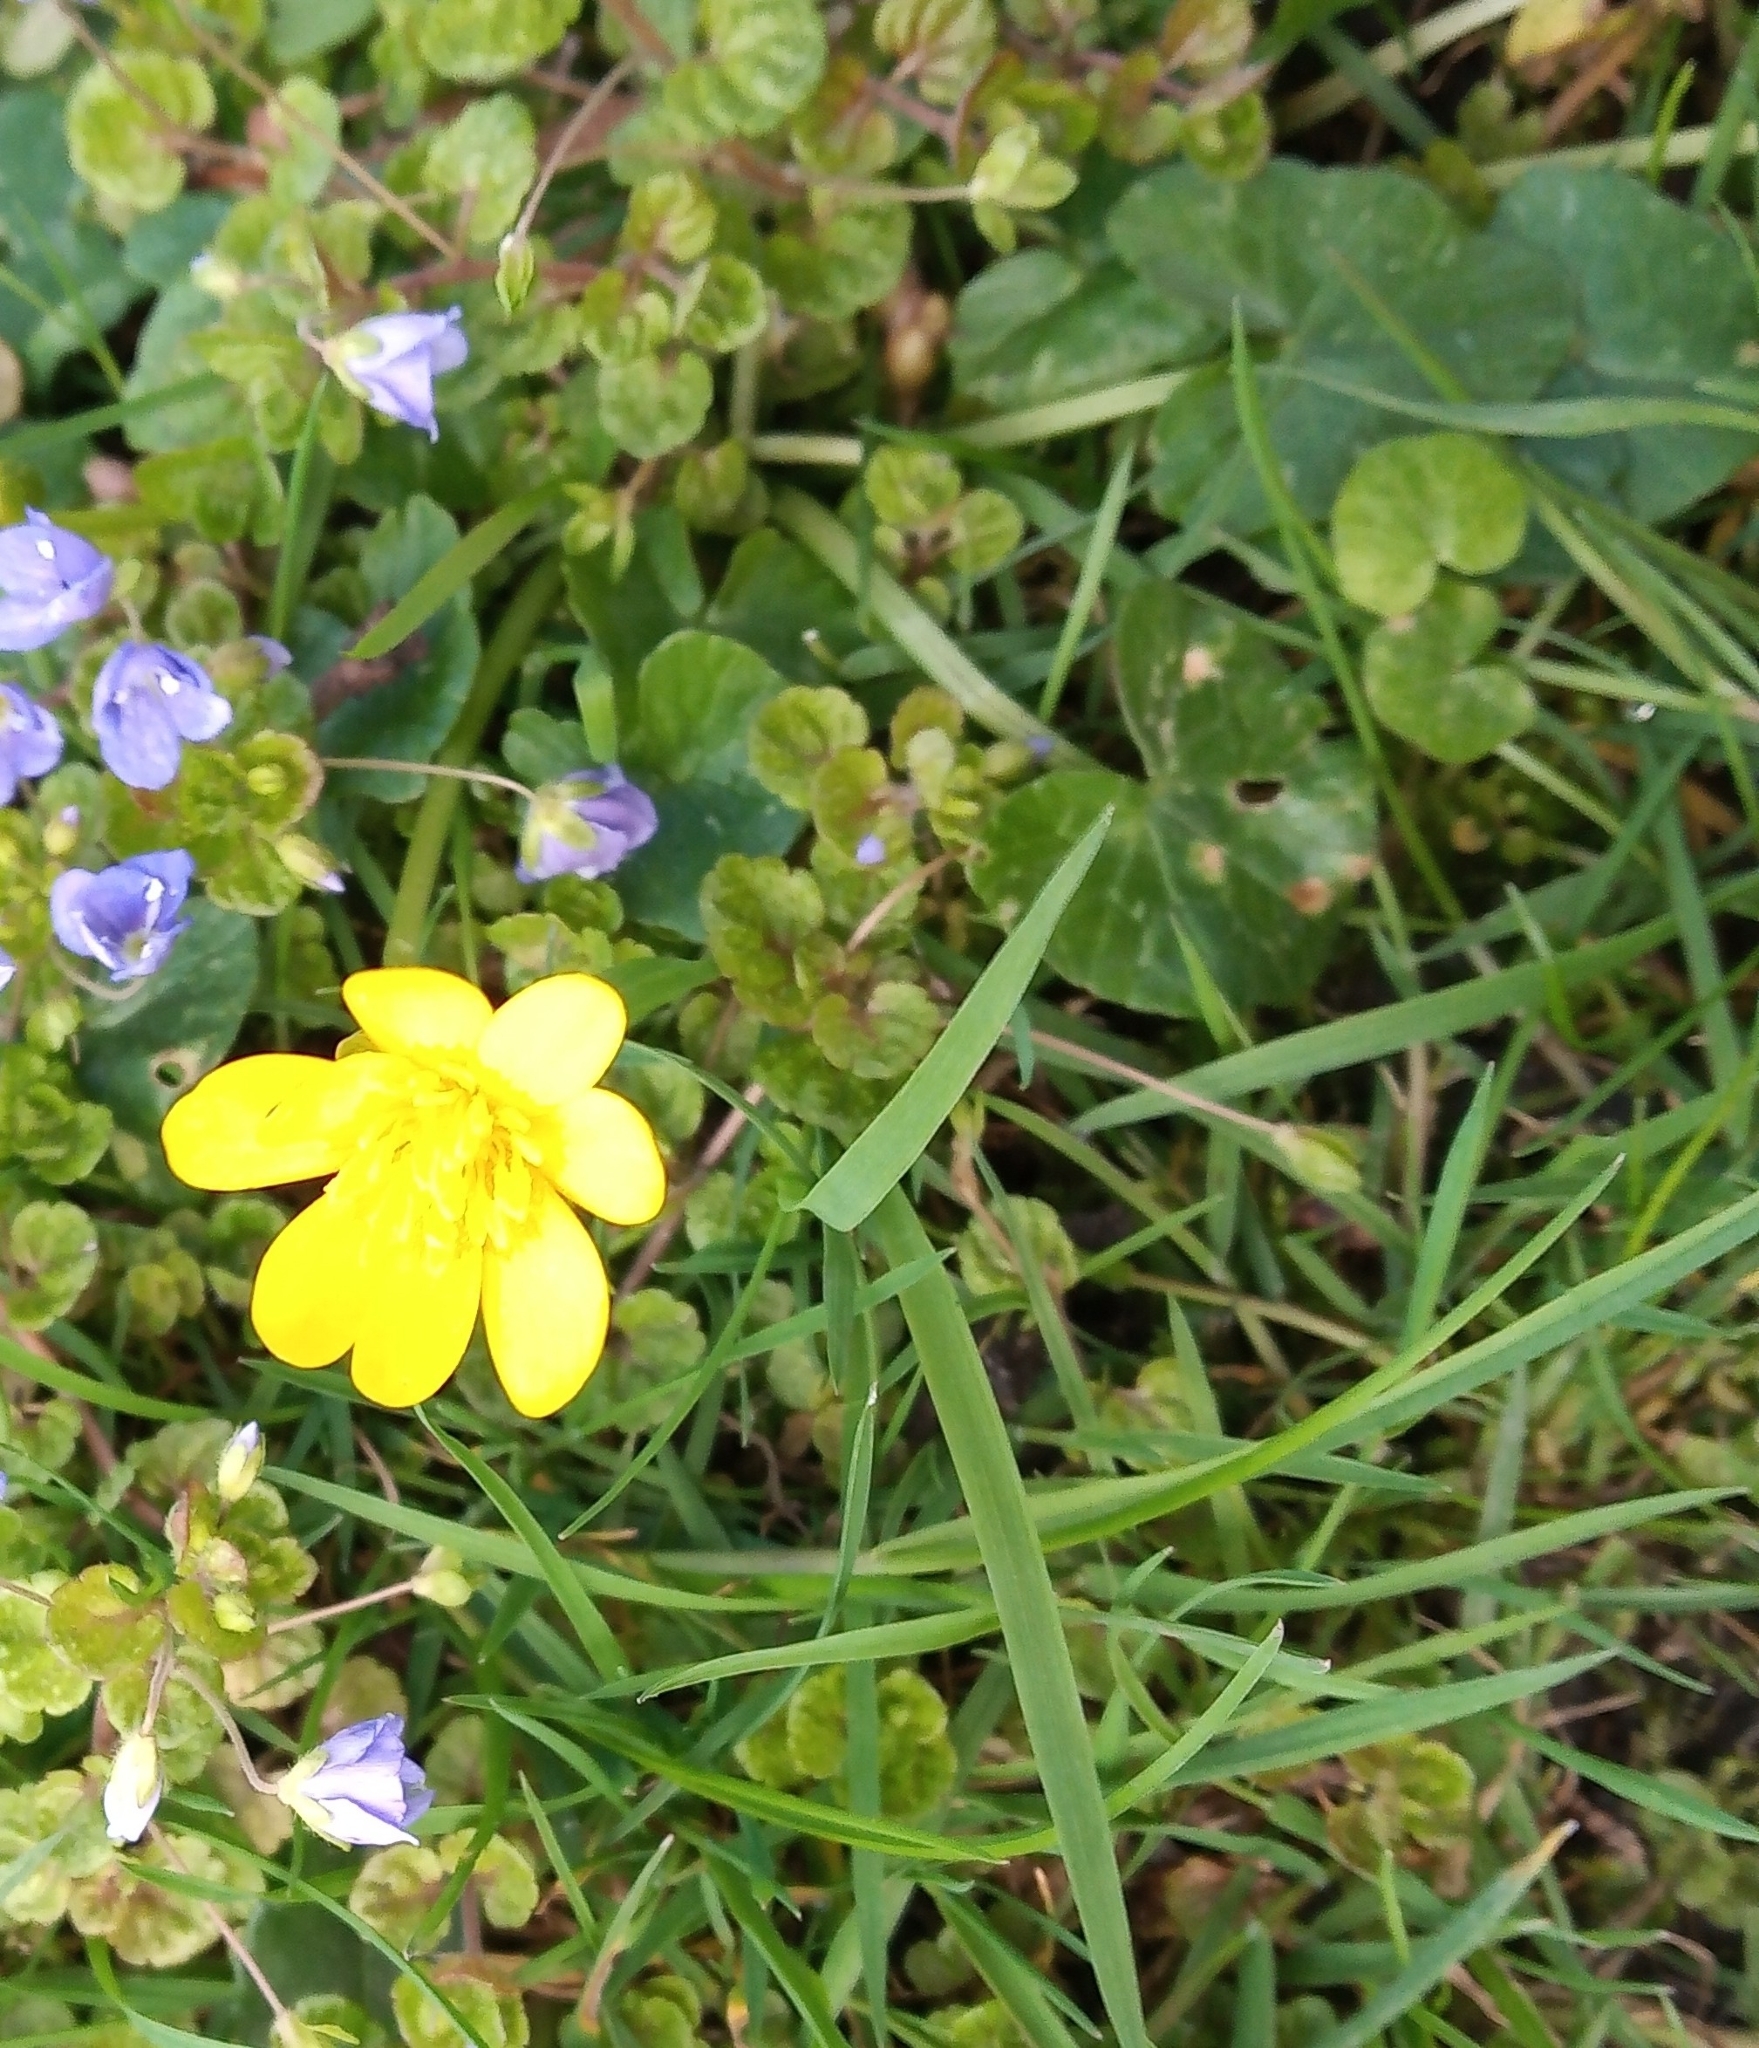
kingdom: Plantae
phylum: Tracheophyta
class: Magnoliopsida
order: Ranunculales
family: Ranunculaceae
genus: Ficaria
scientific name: Ficaria verna
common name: Lesser celandine
